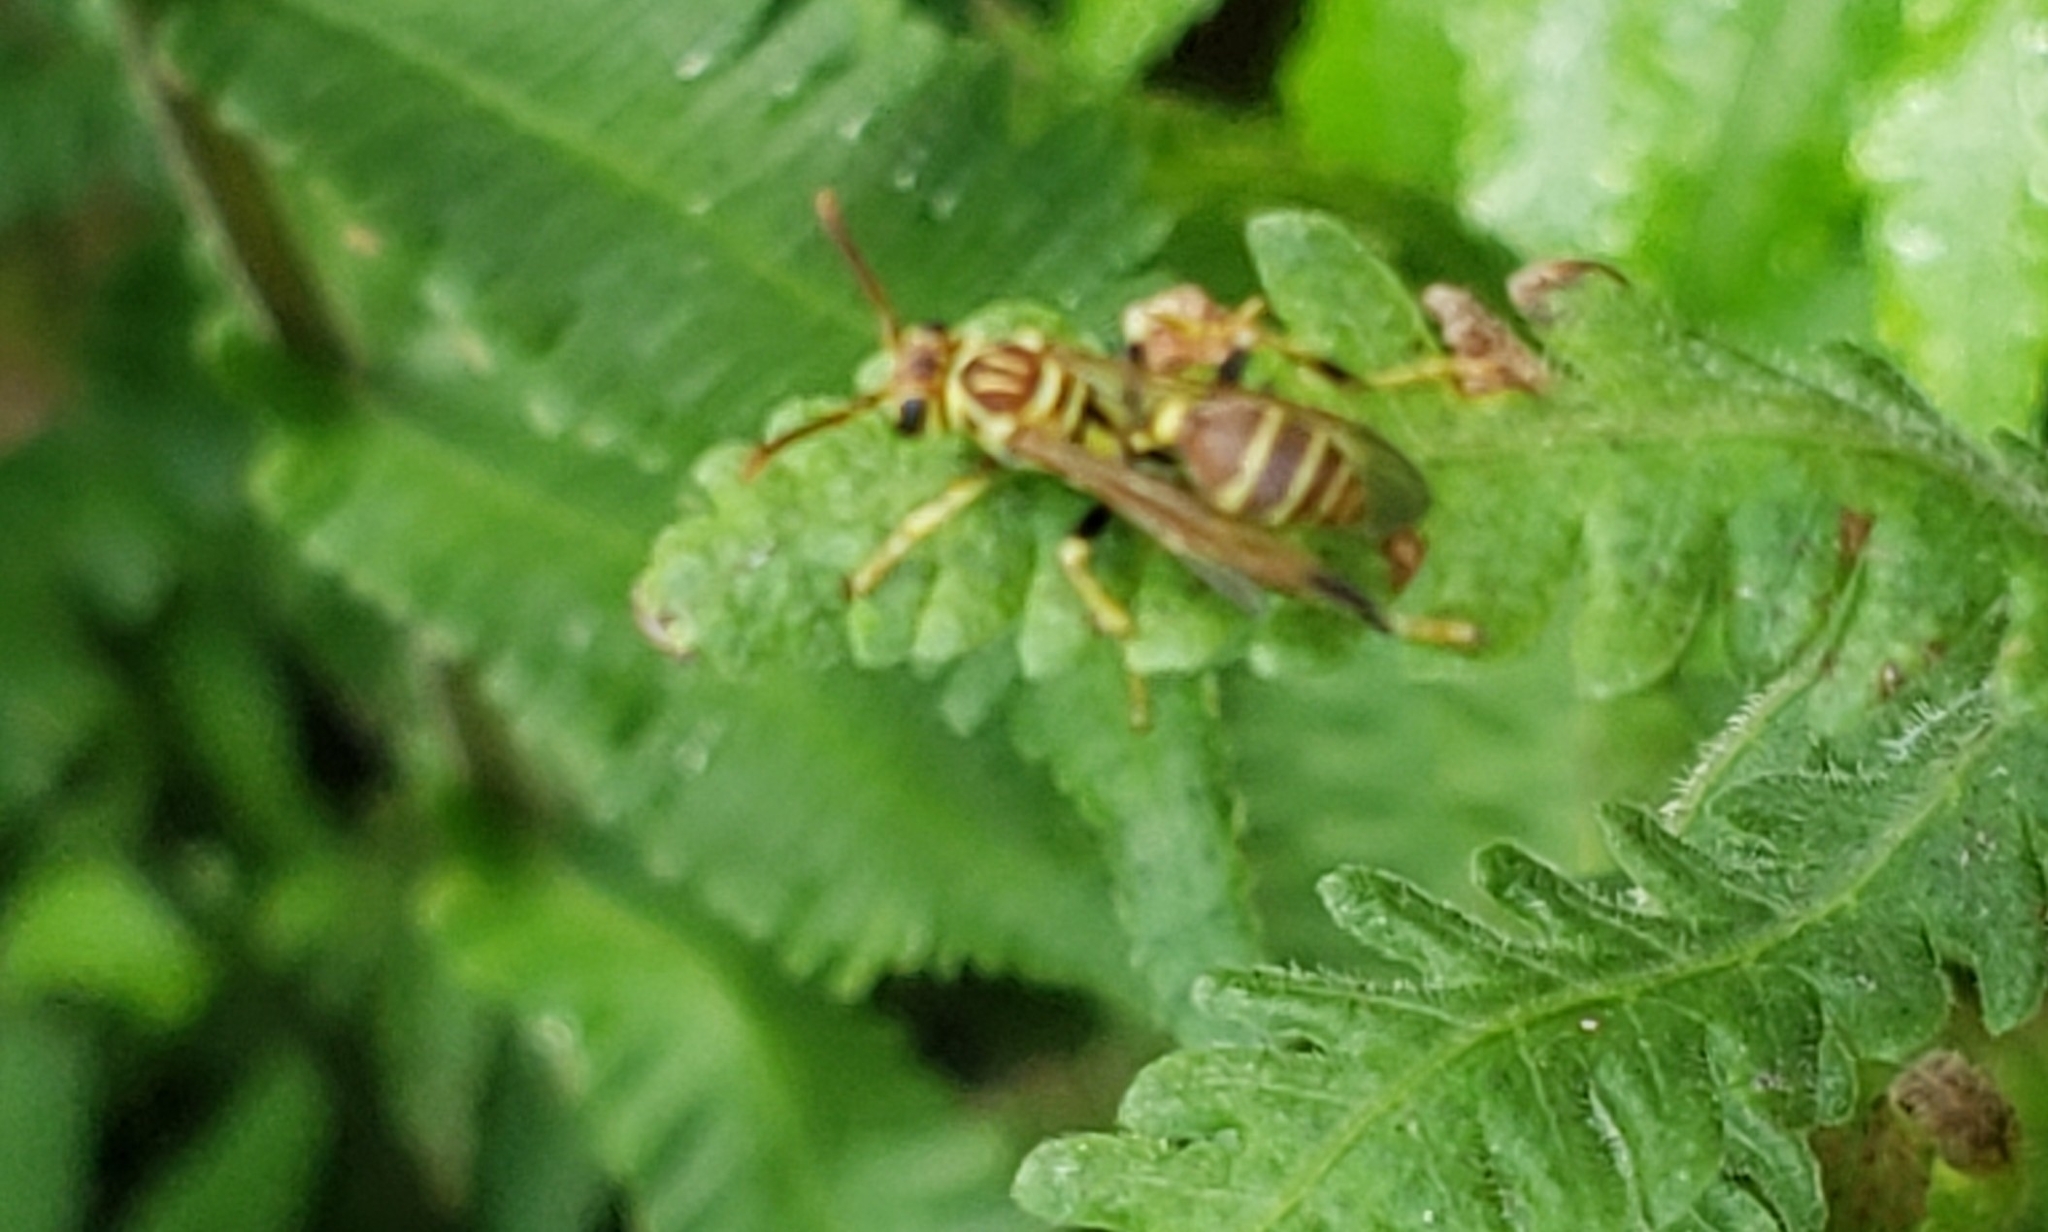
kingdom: Animalia
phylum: Arthropoda
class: Insecta
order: Hymenoptera
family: Vespidae
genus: Mischocyttarus
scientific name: Mischocyttarus mexicanus
